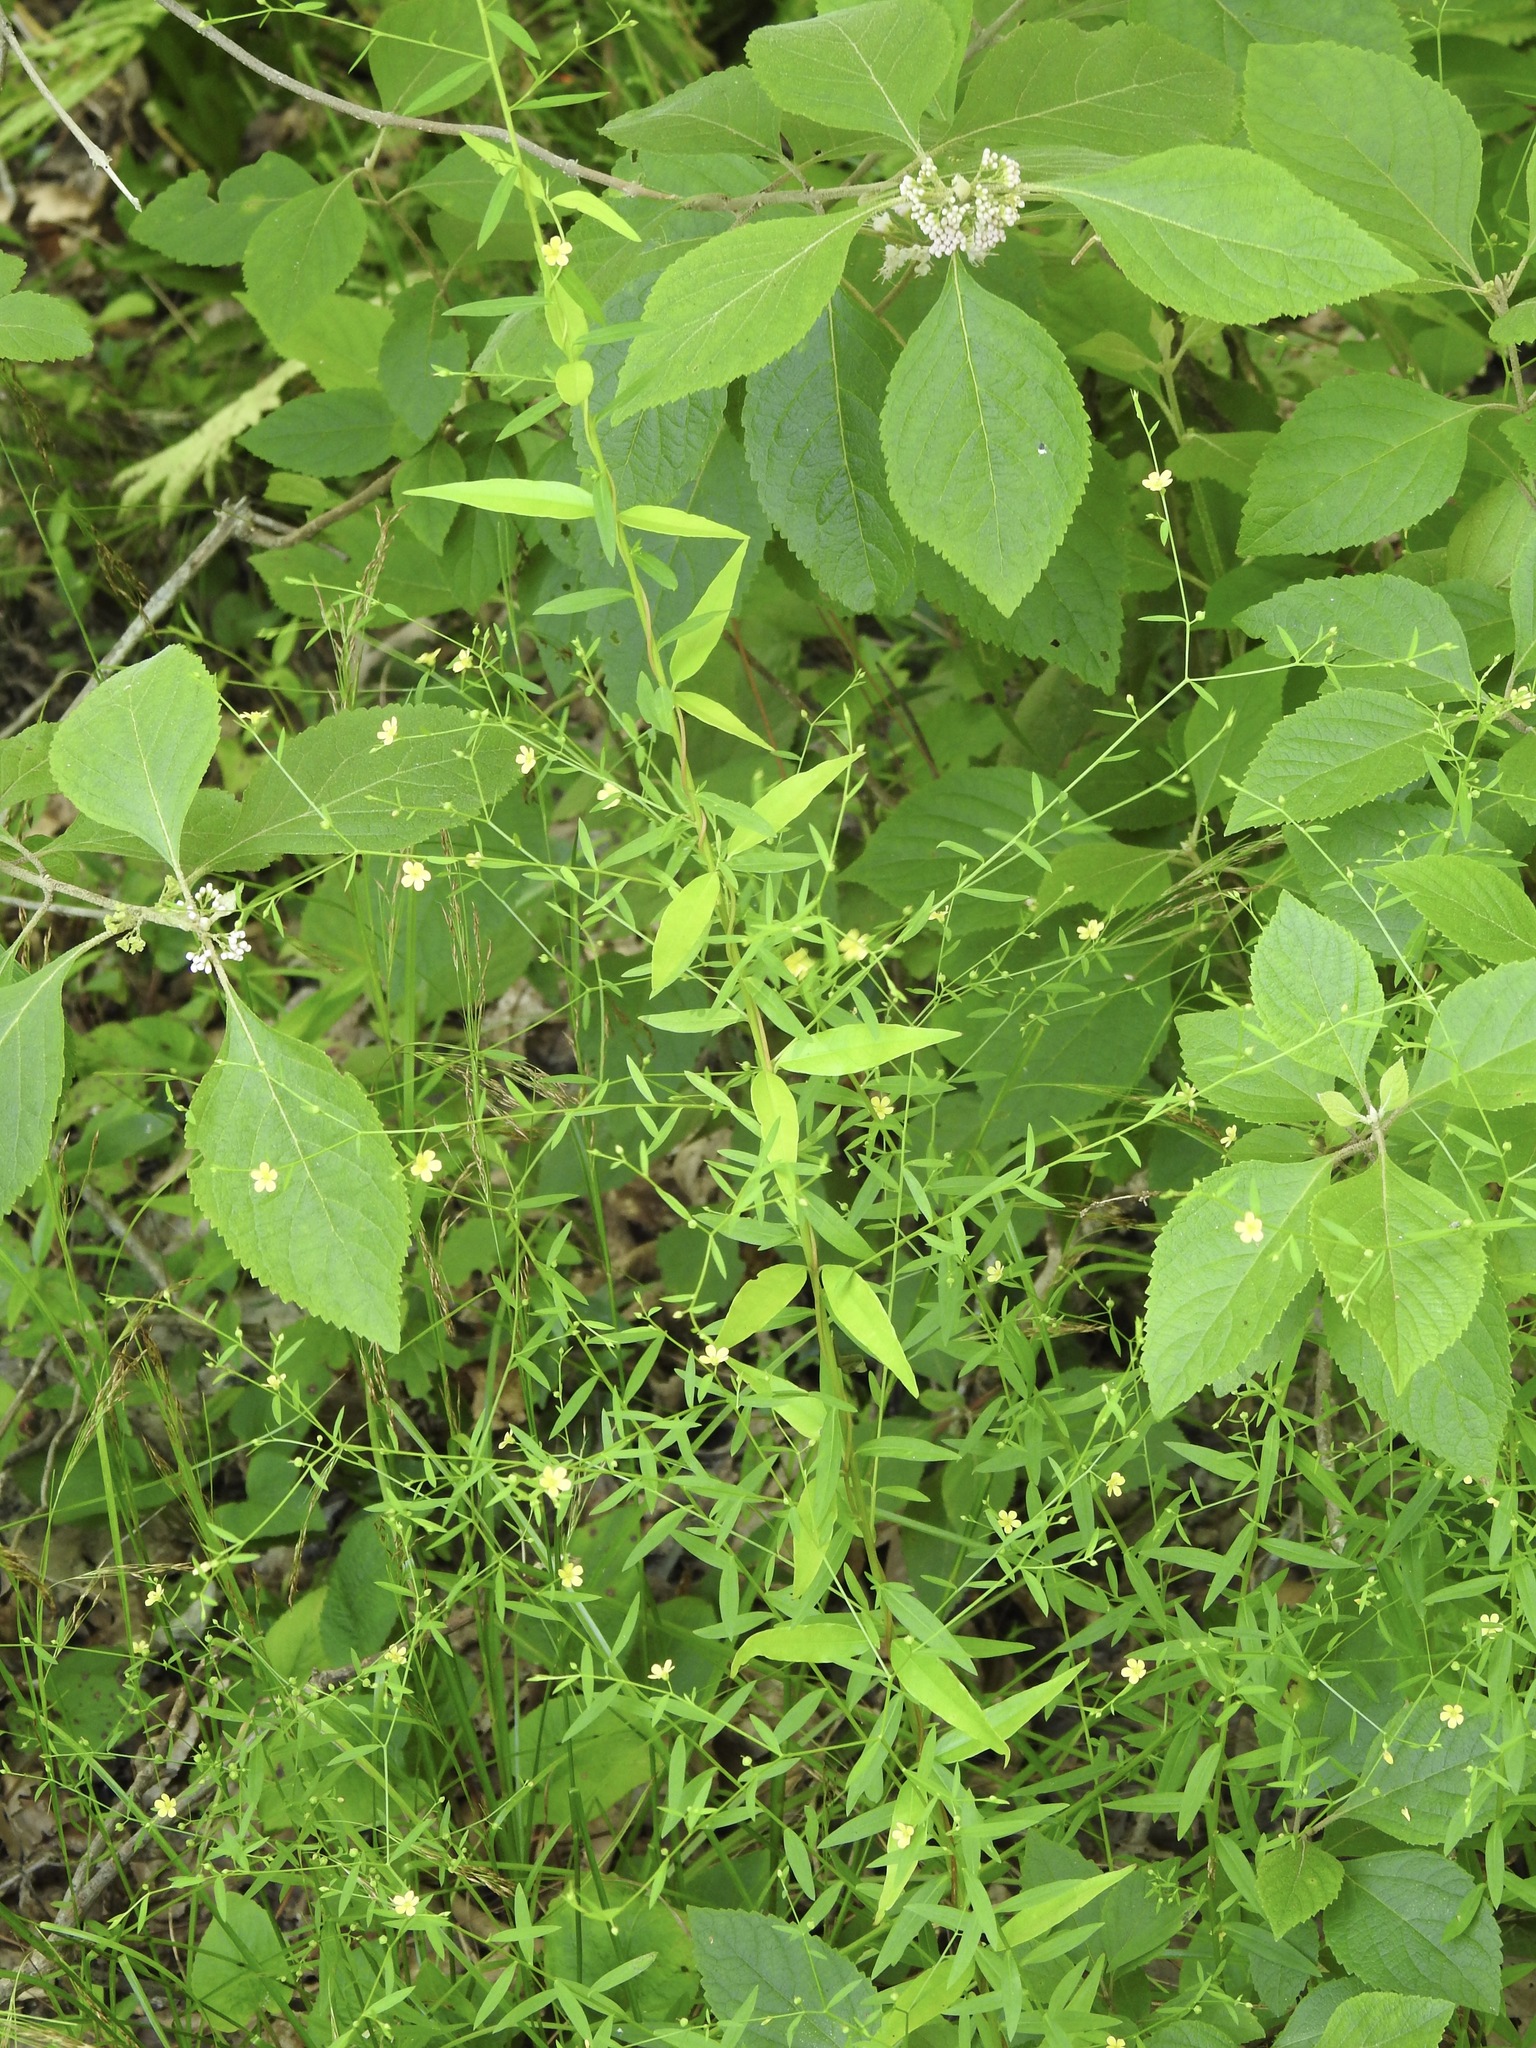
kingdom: Plantae
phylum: Tracheophyta
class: Magnoliopsida
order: Malpighiales
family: Linaceae
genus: Linum
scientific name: Linum striatum
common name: Ridged yellow flax
